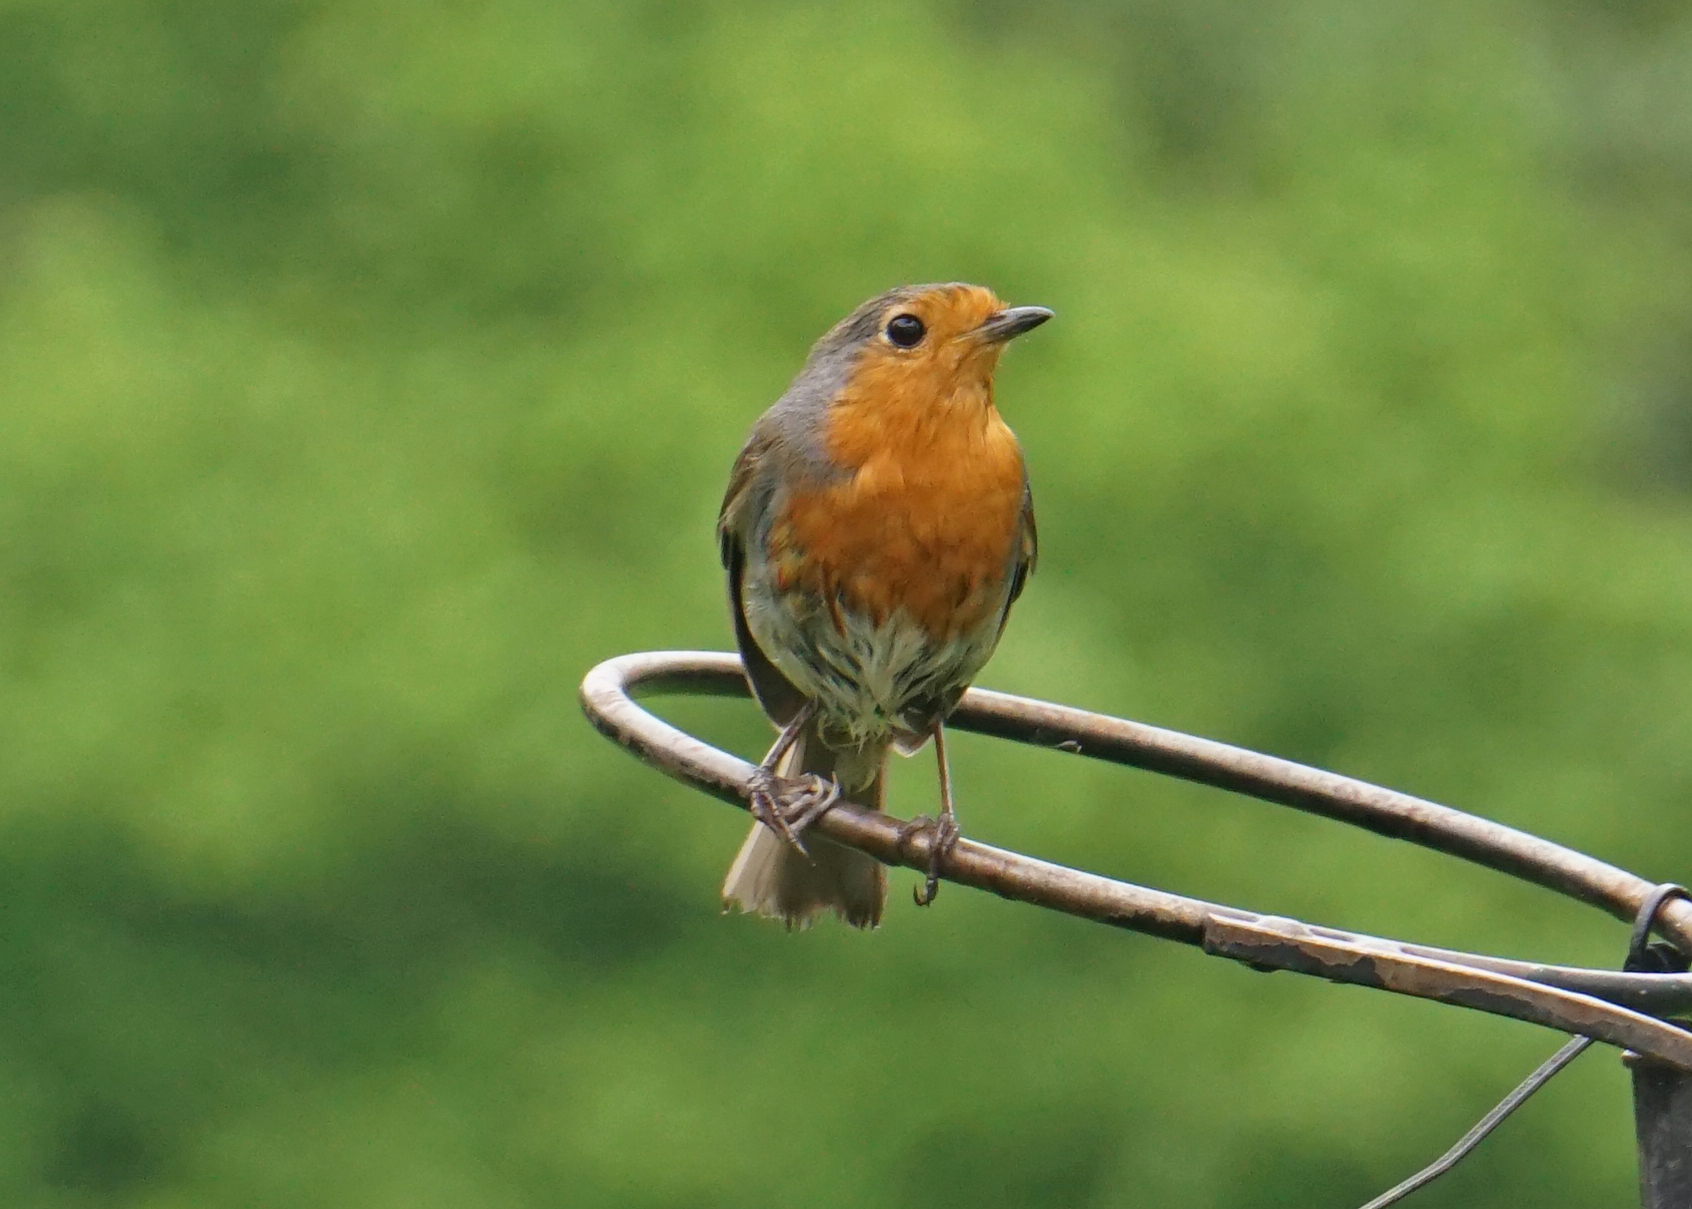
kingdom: Animalia
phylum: Chordata
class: Aves
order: Passeriformes
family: Muscicapidae
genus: Erithacus
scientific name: Erithacus rubecula
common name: European robin
